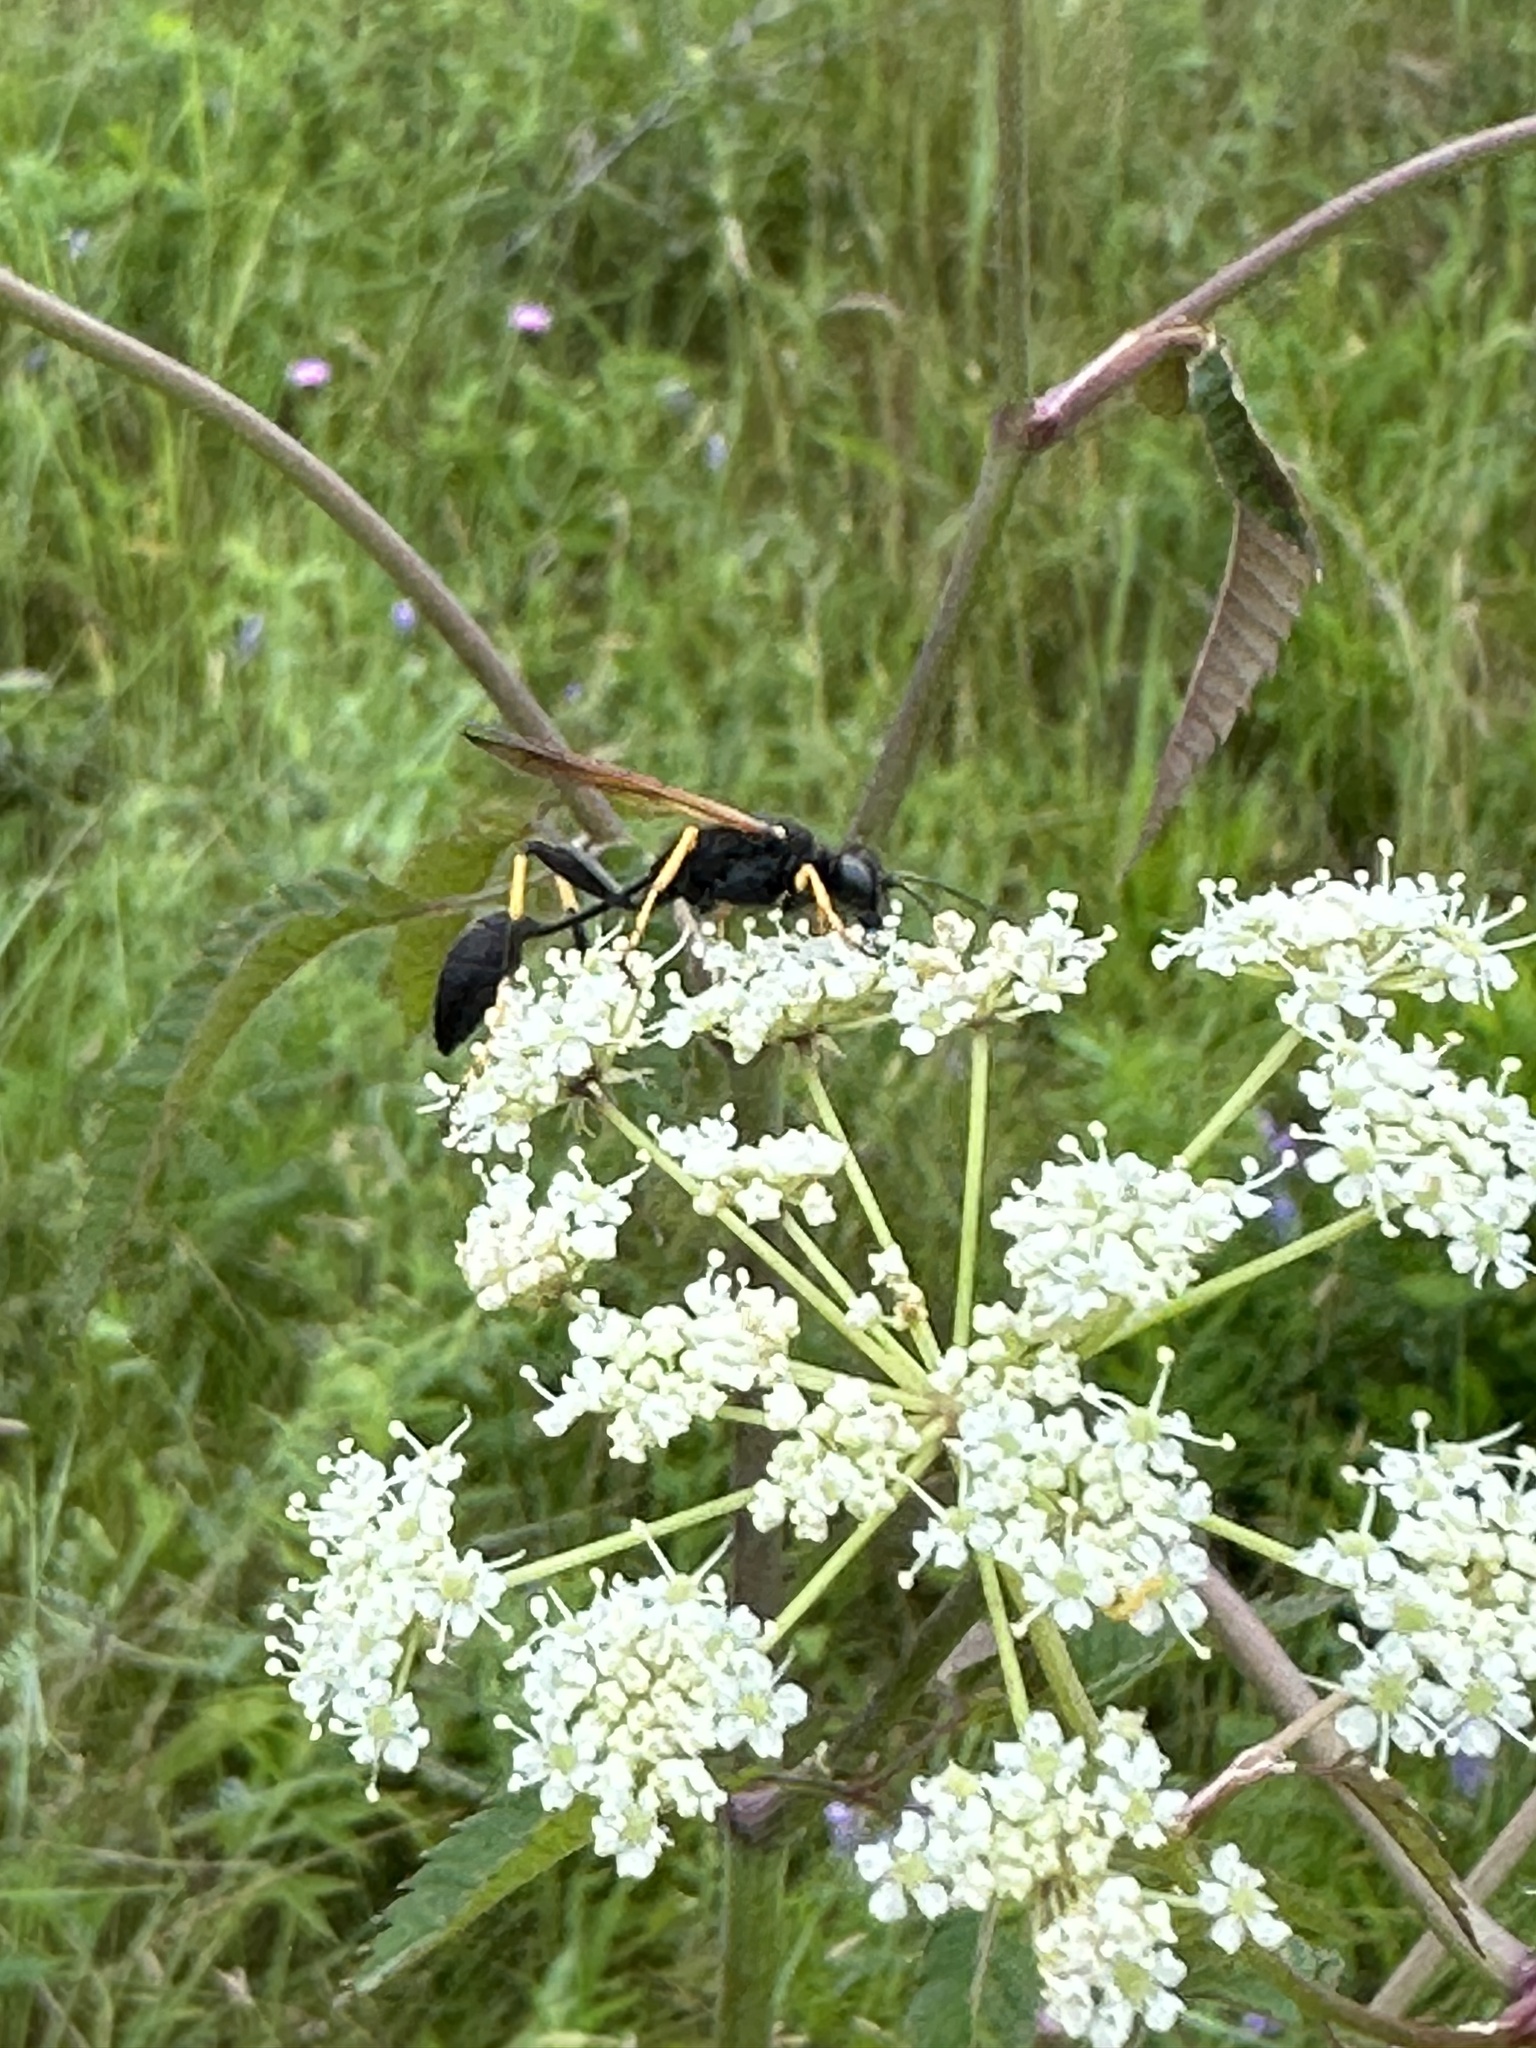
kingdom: Animalia
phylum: Arthropoda
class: Insecta
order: Hymenoptera
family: Sphecidae
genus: Sceliphron
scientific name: Sceliphron caementarium
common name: Mud dauber
